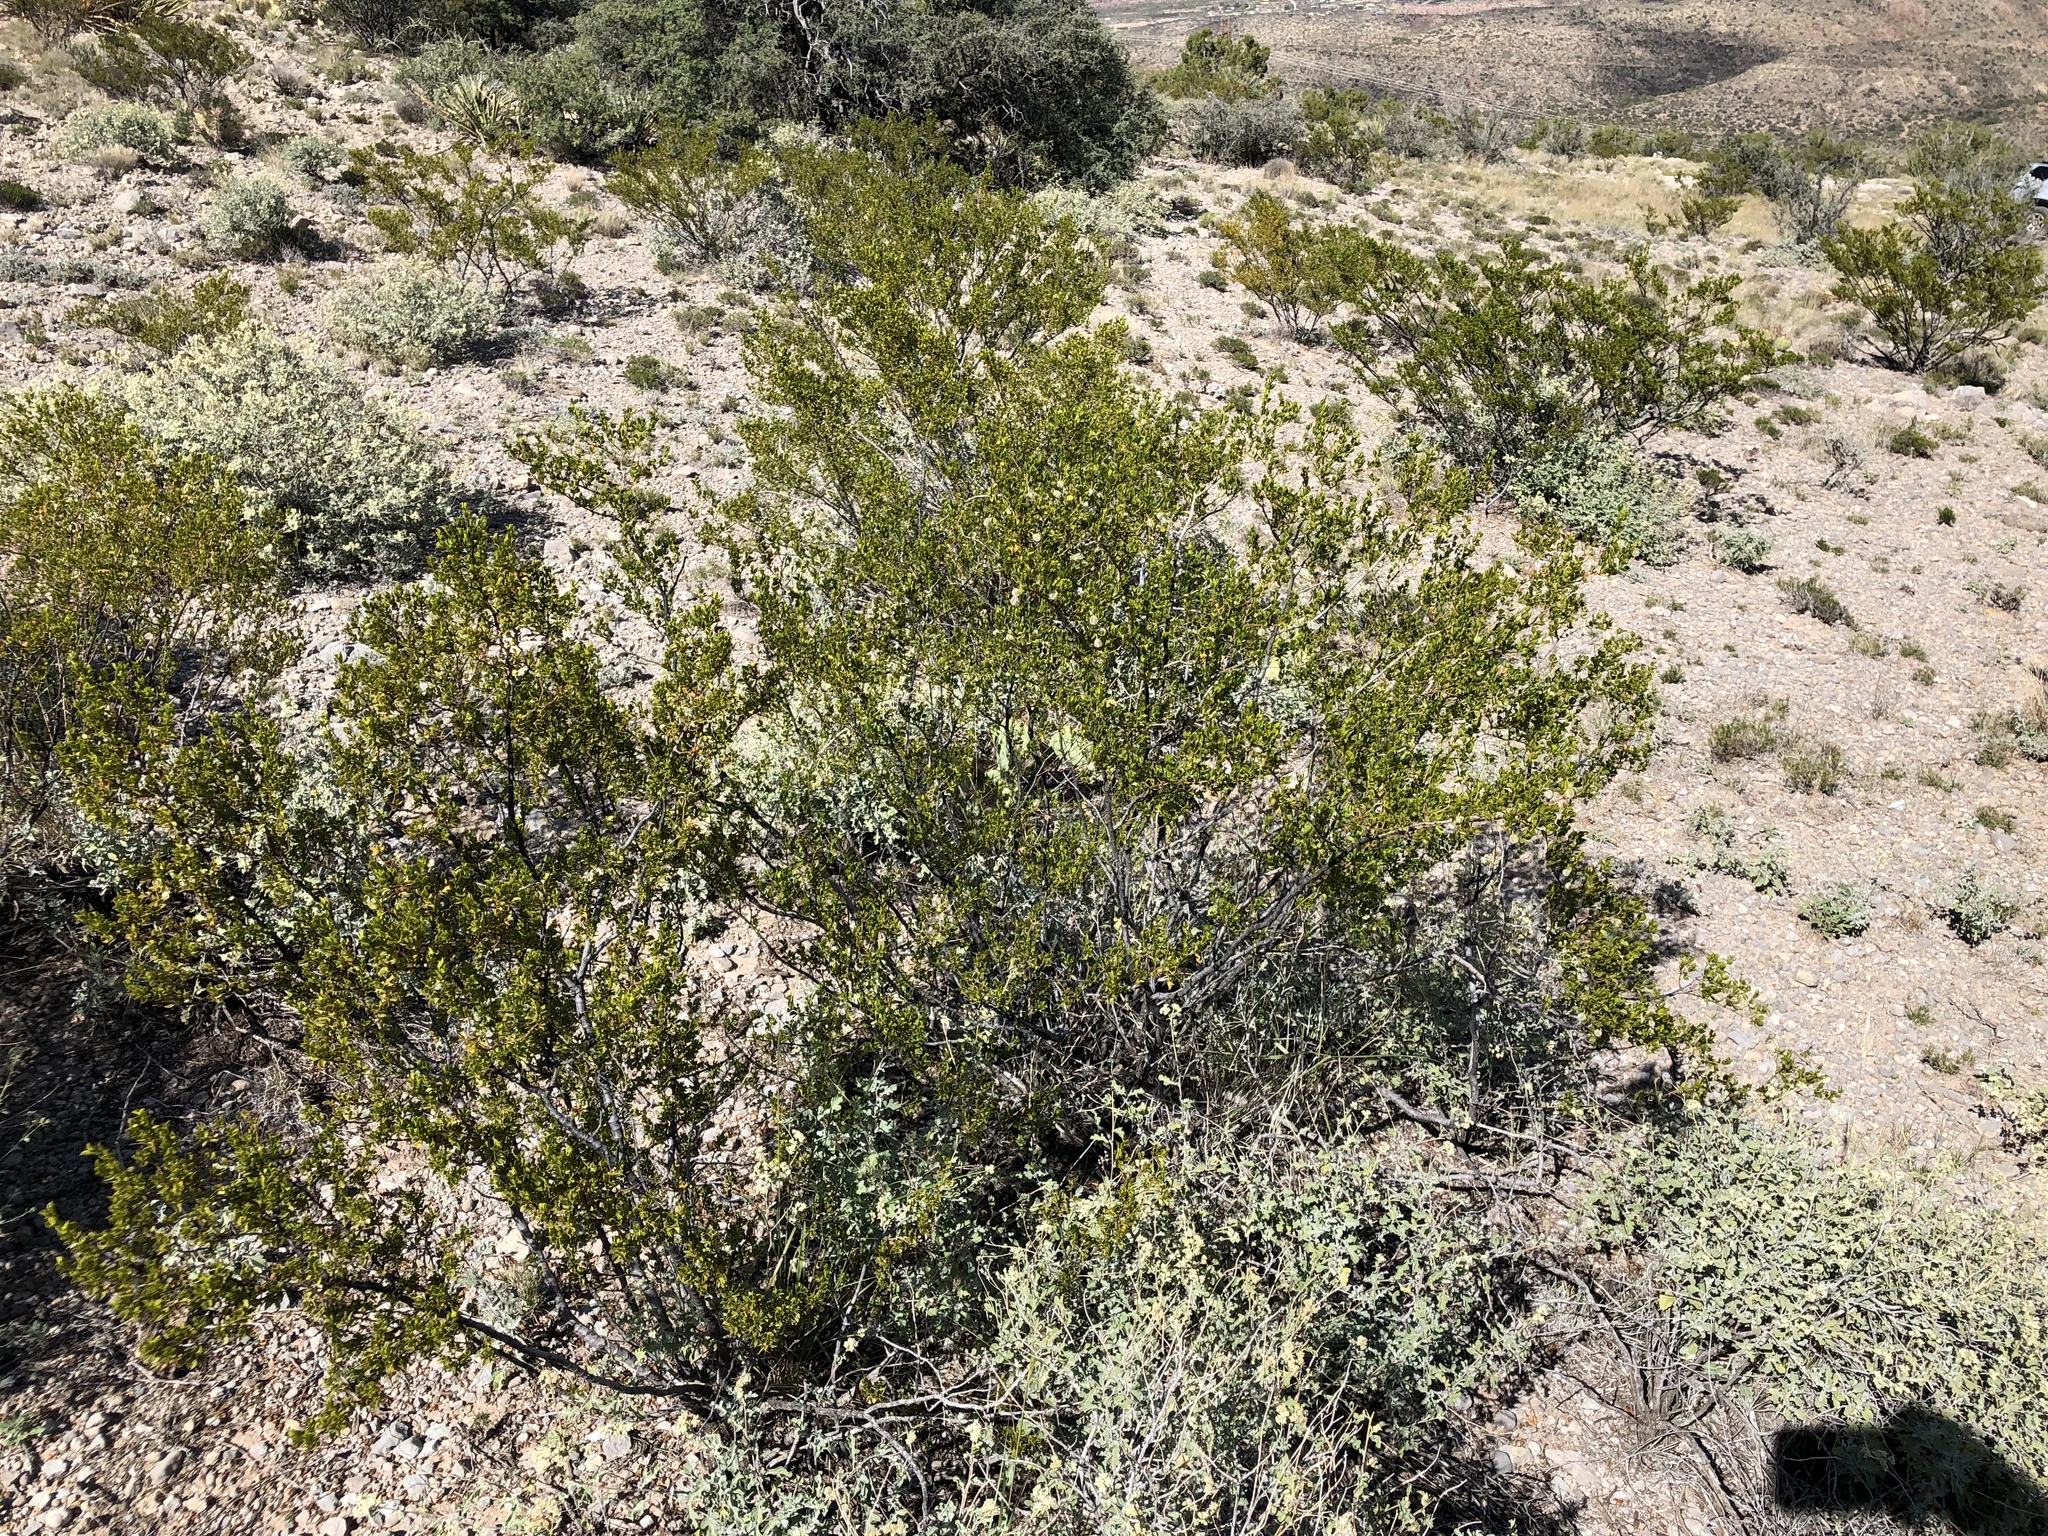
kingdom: Plantae
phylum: Tracheophyta
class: Magnoliopsida
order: Zygophyllales
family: Zygophyllaceae
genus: Larrea
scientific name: Larrea tridentata
